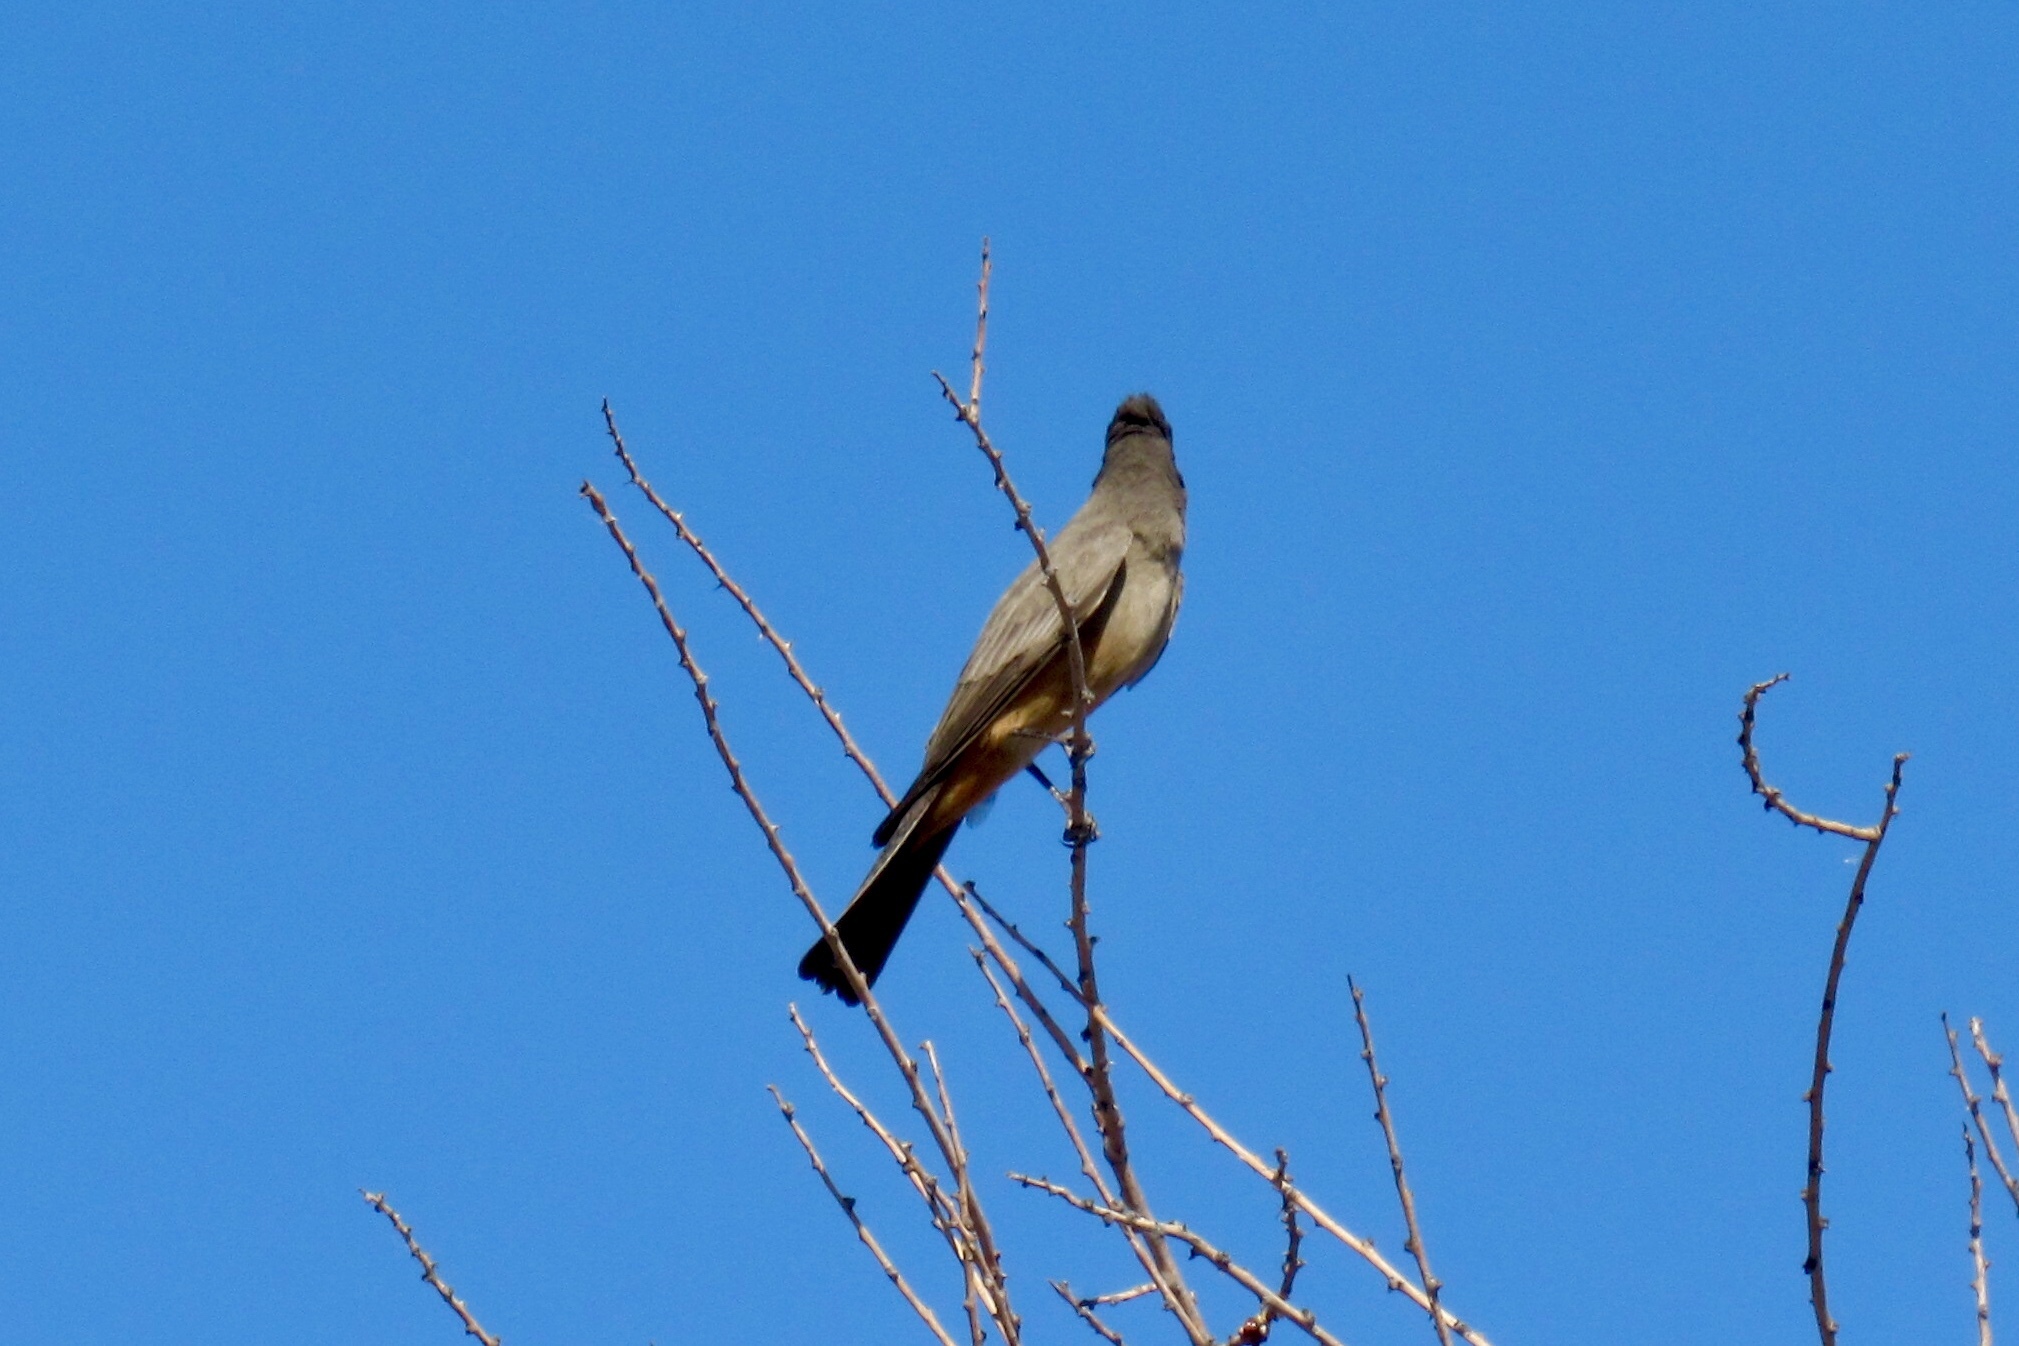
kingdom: Animalia
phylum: Chordata
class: Aves
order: Passeriformes
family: Tyrannidae
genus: Sayornis
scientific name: Sayornis saya
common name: Say's phoebe
